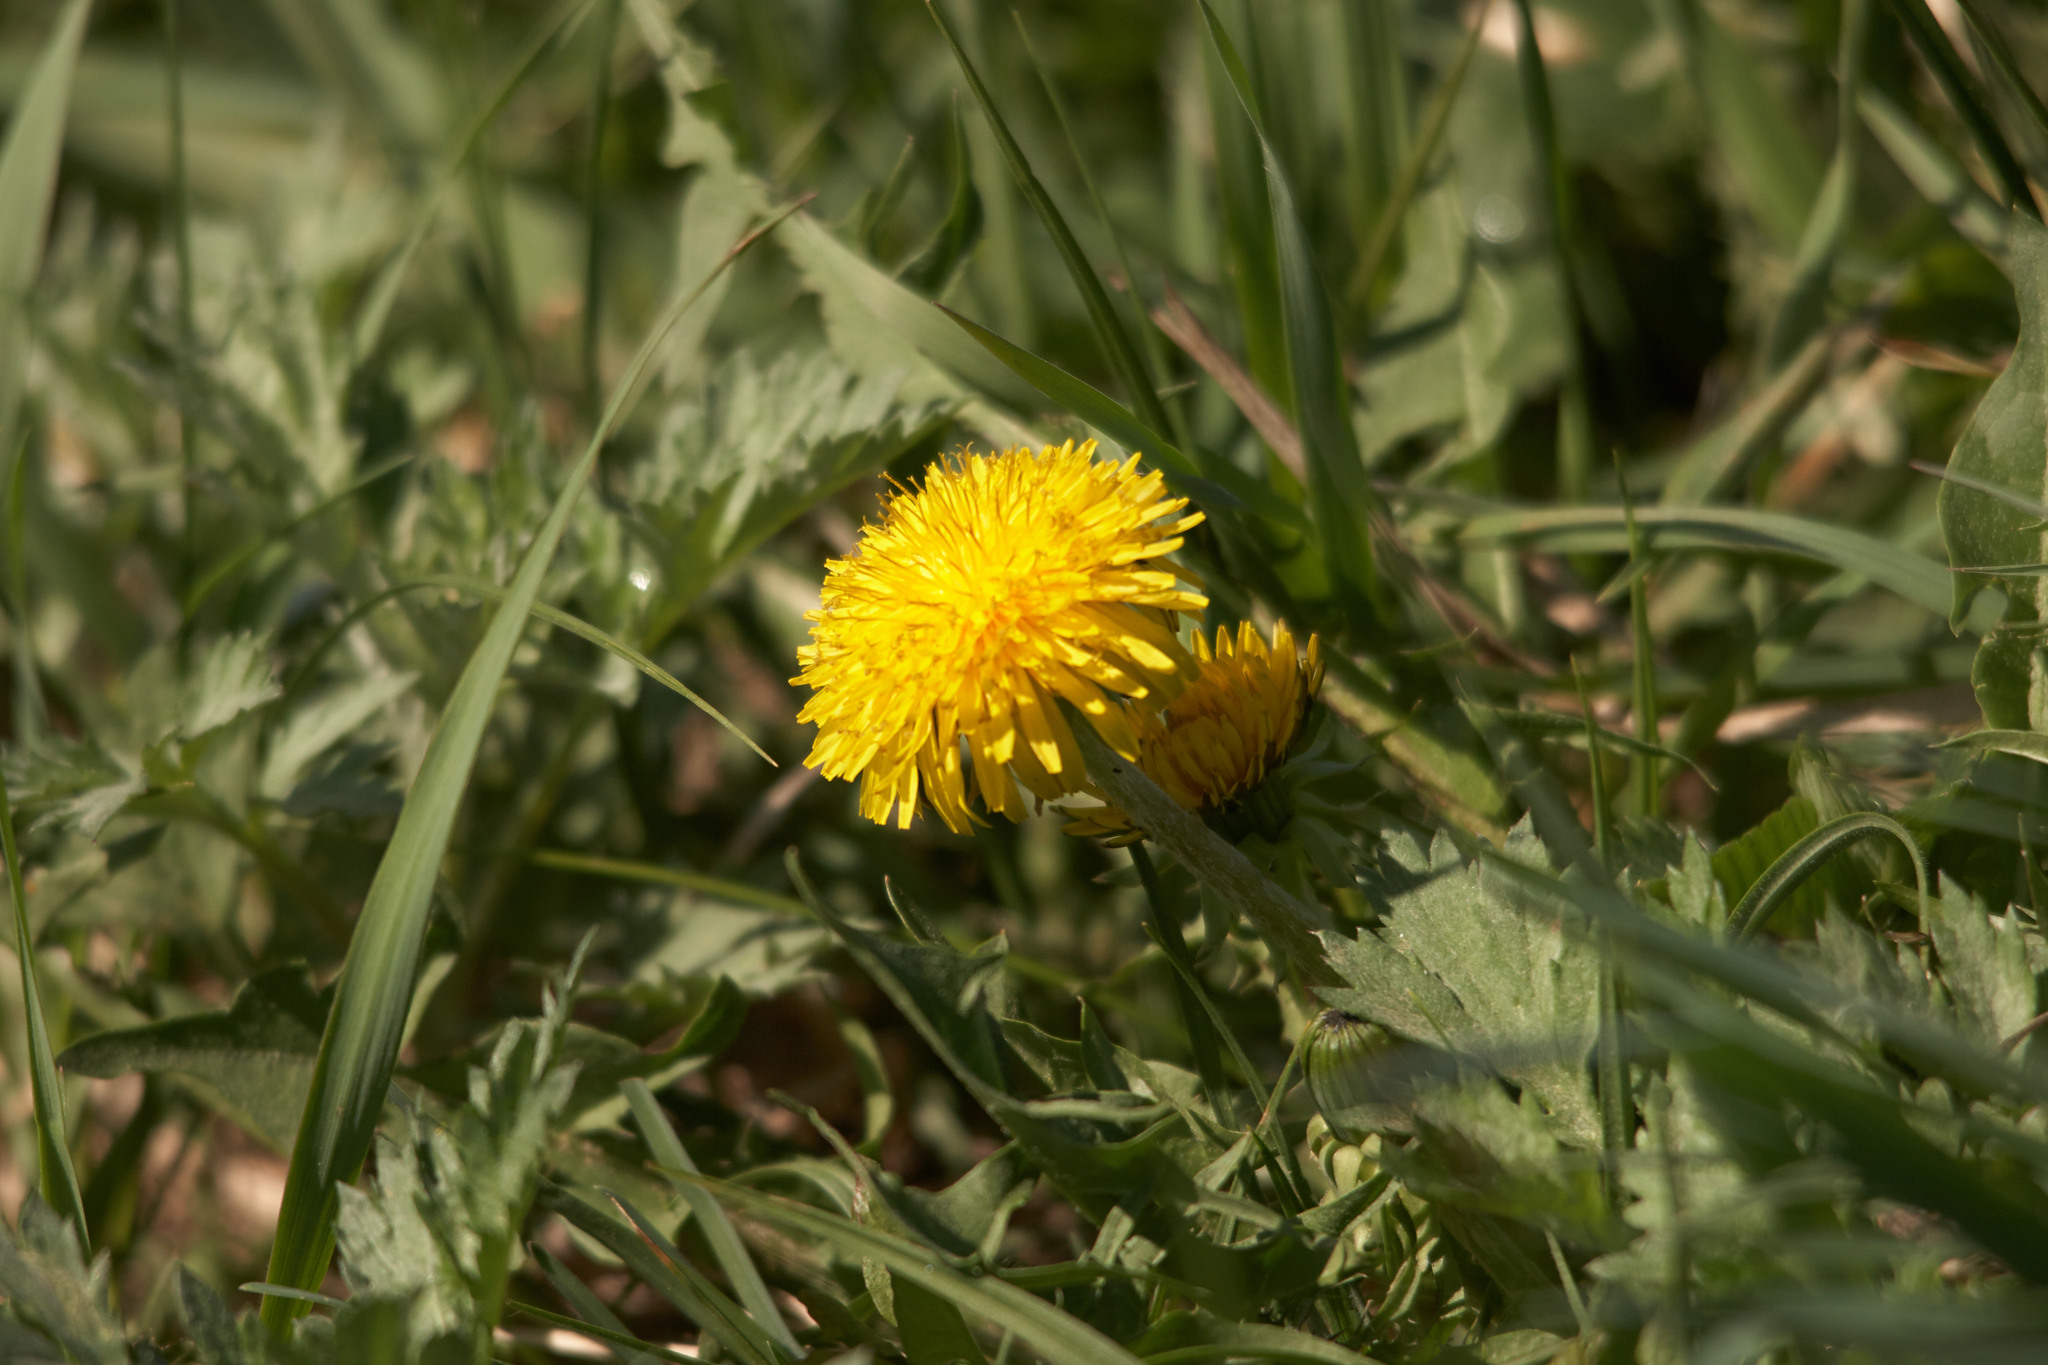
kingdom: Plantae
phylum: Tracheophyta
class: Magnoliopsida
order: Asterales
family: Asteraceae
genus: Taraxacum
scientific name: Taraxacum officinale
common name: Common dandelion
